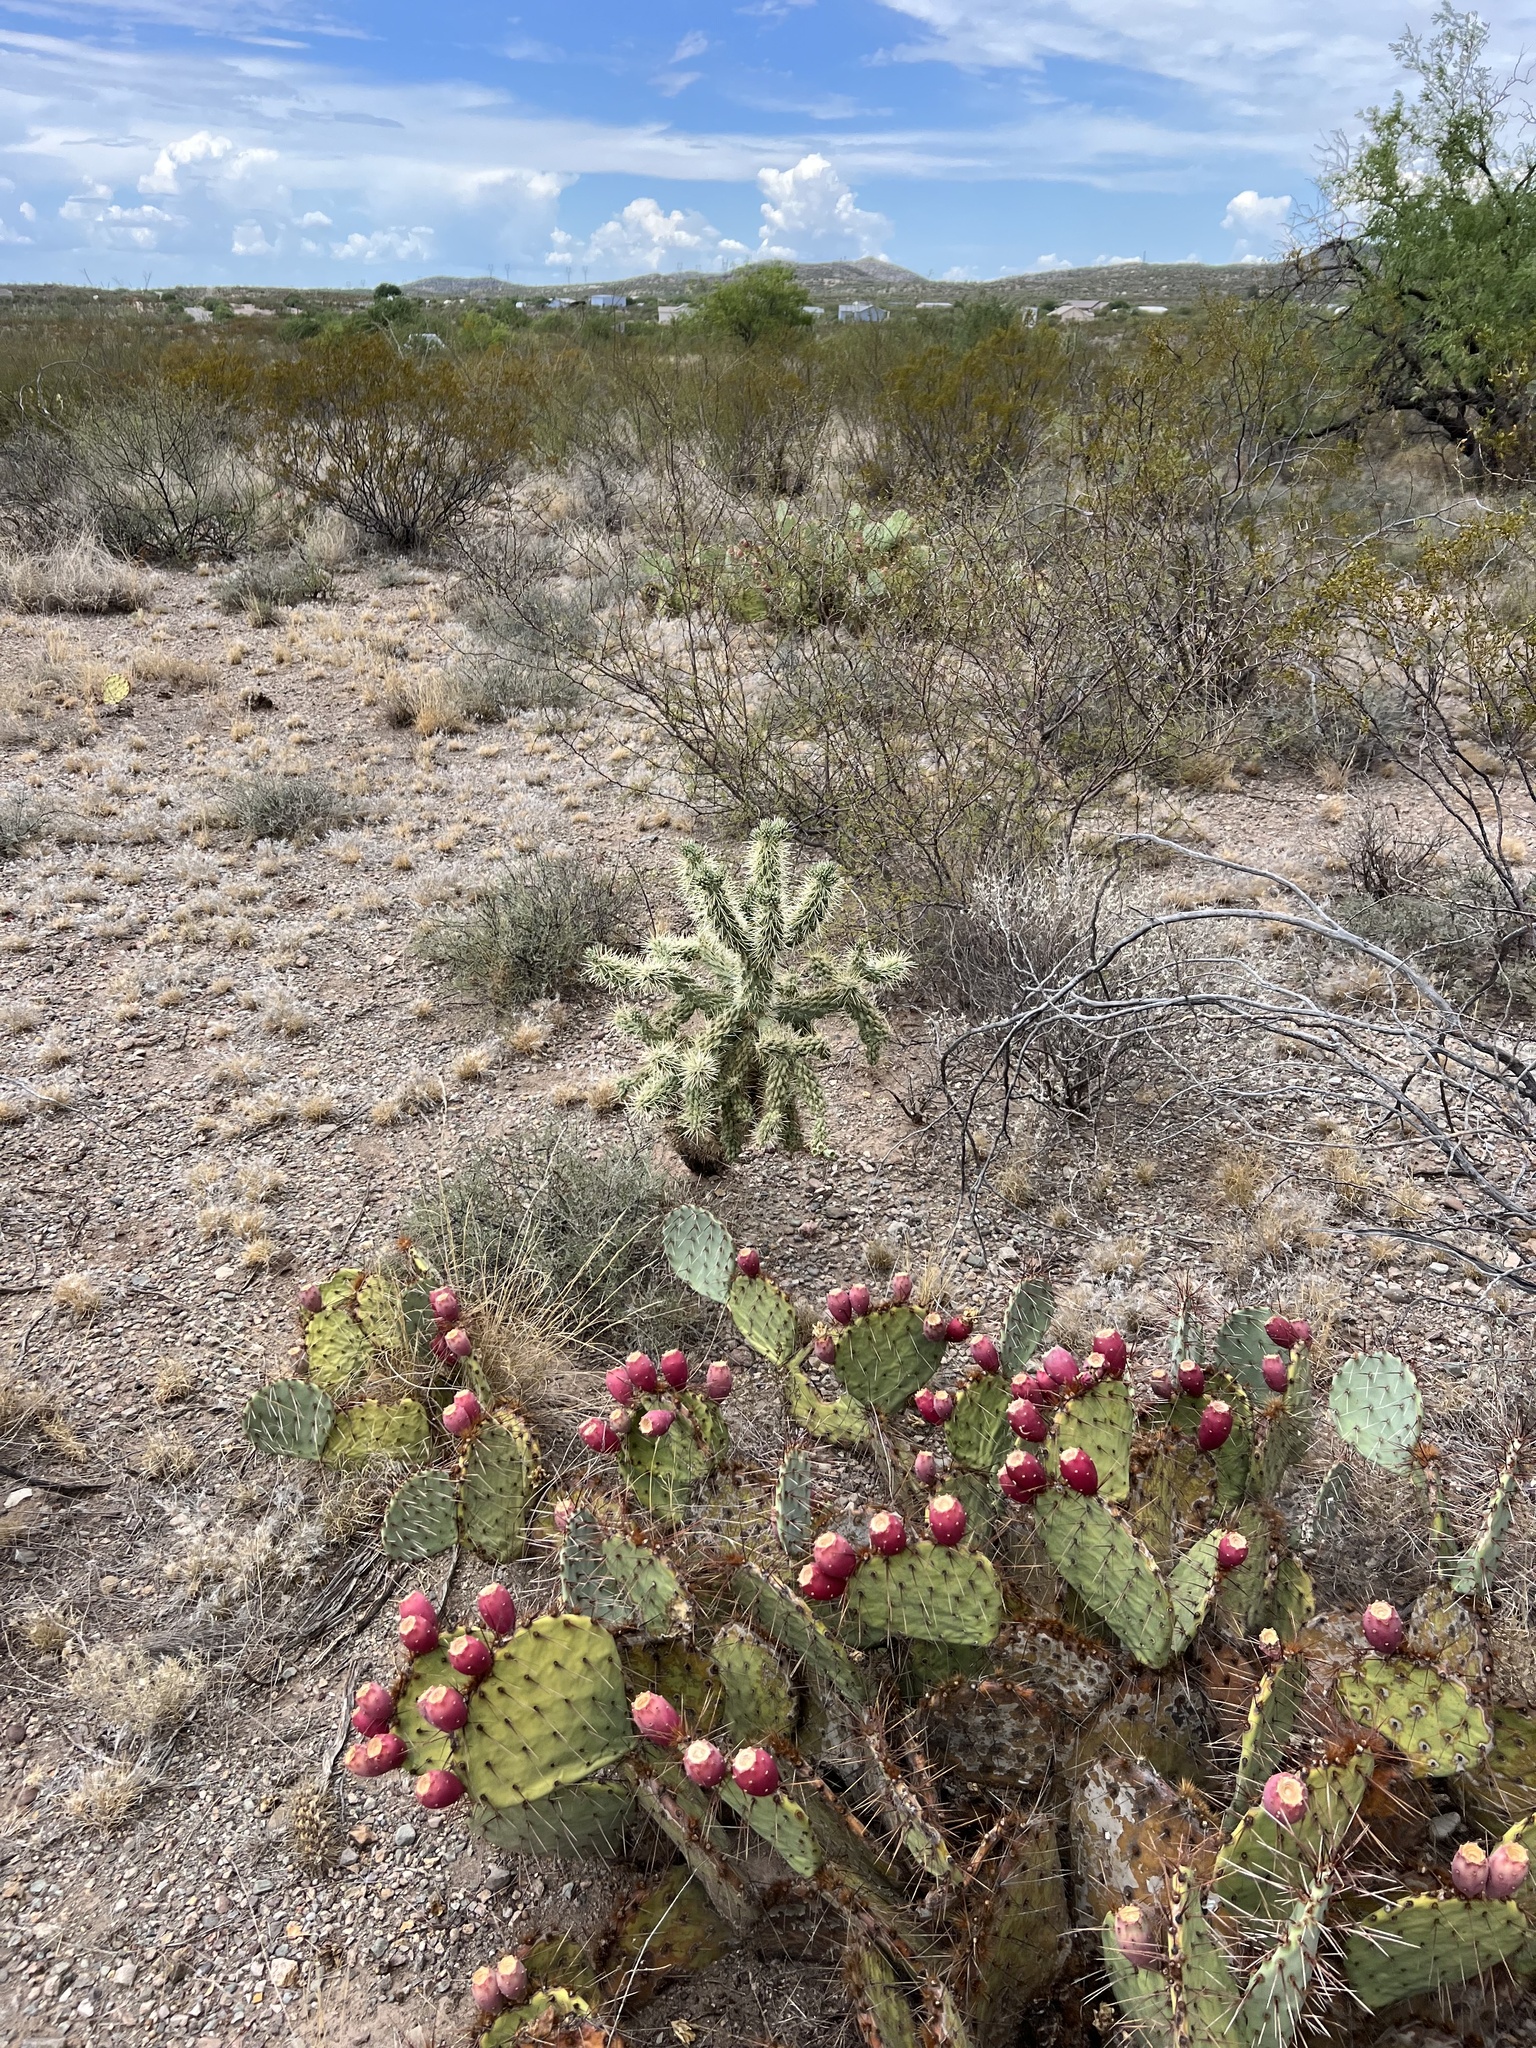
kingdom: Plantae
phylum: Tracheophyta
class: Magnoliopsida
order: Caryophyllales
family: Cactaceae
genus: Cylindropuntia
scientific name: Cylindropuntia fulgida
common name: Jumping cholla
